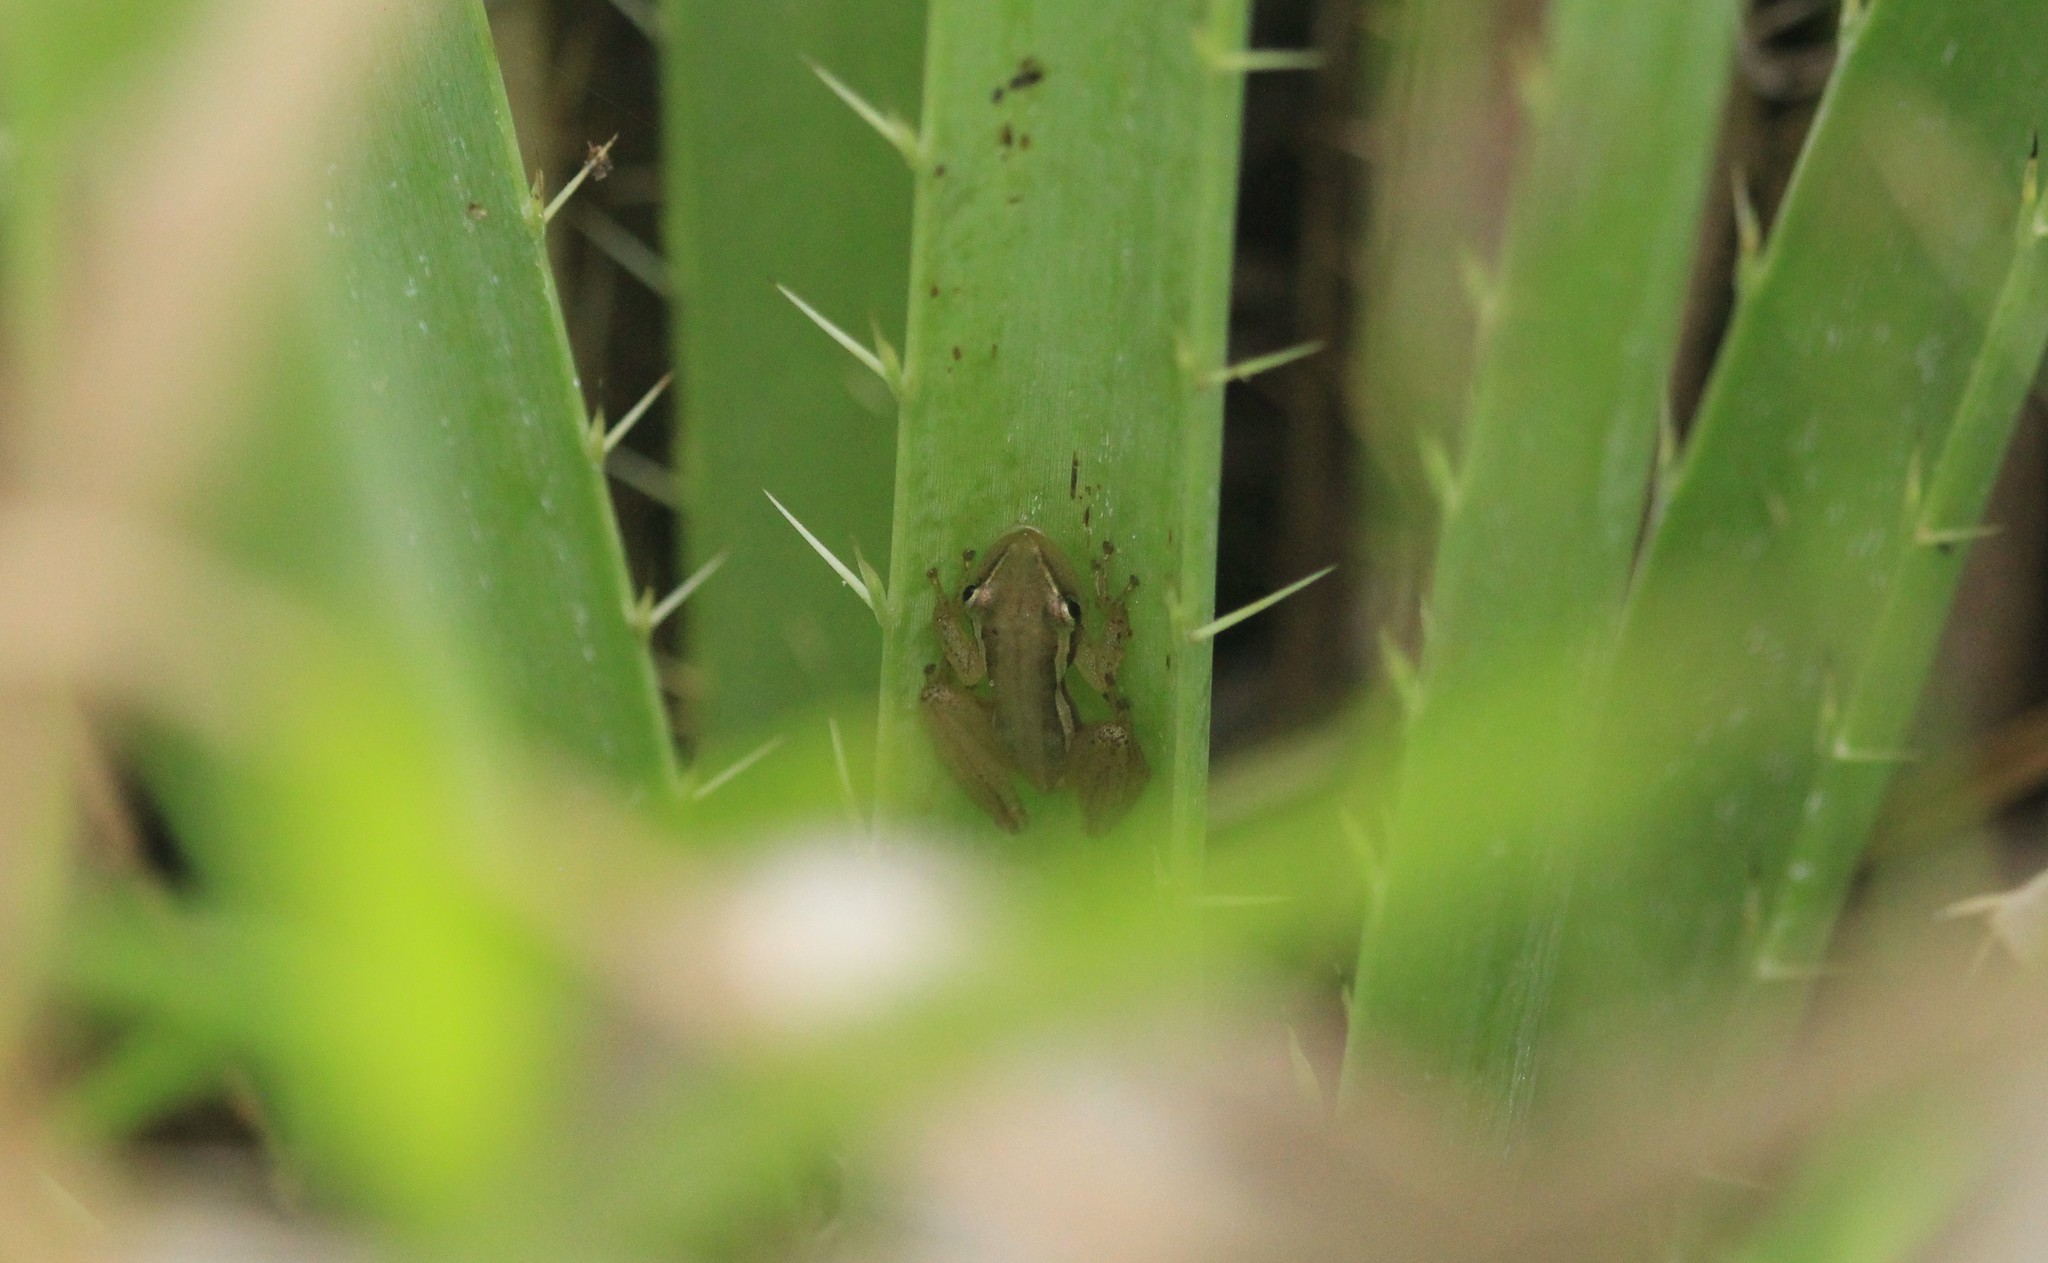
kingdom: Animalia
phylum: Chordata
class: Amphibia
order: Anura
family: Hylidae
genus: Scinax
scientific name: Scinax squalirostris
